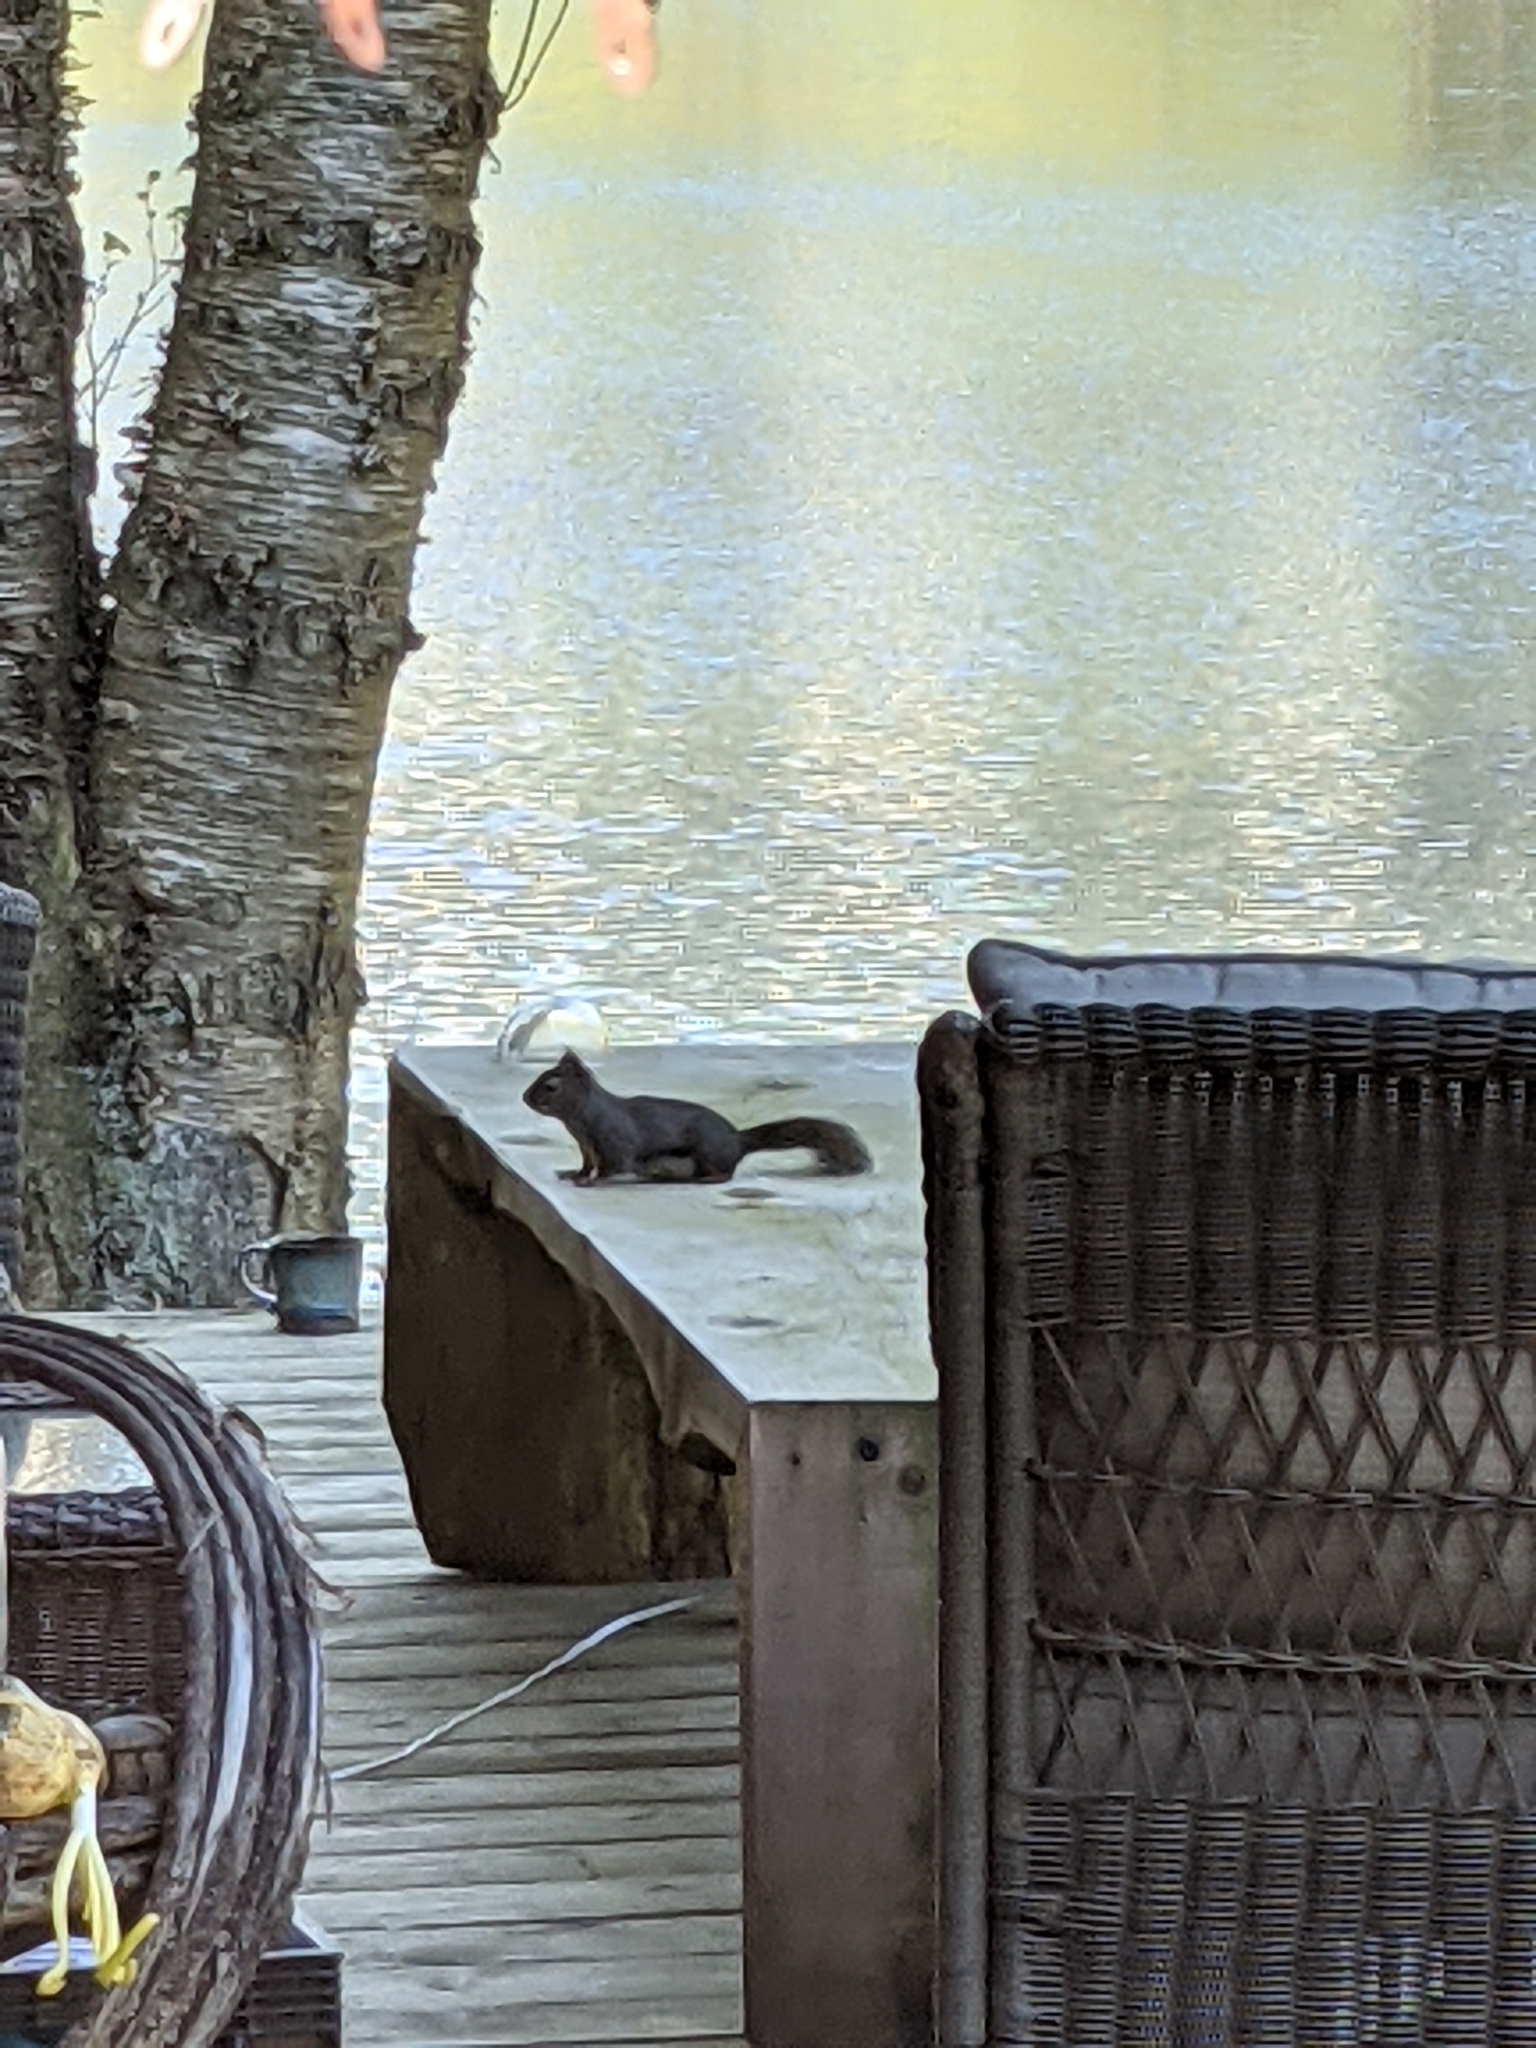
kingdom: Animalia
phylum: Chordata
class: Mammalia
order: Rodentia
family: Sciuridae
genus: Tamiasciurus
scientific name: Tamiasciurus douglasii
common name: Douglas's squirrel
